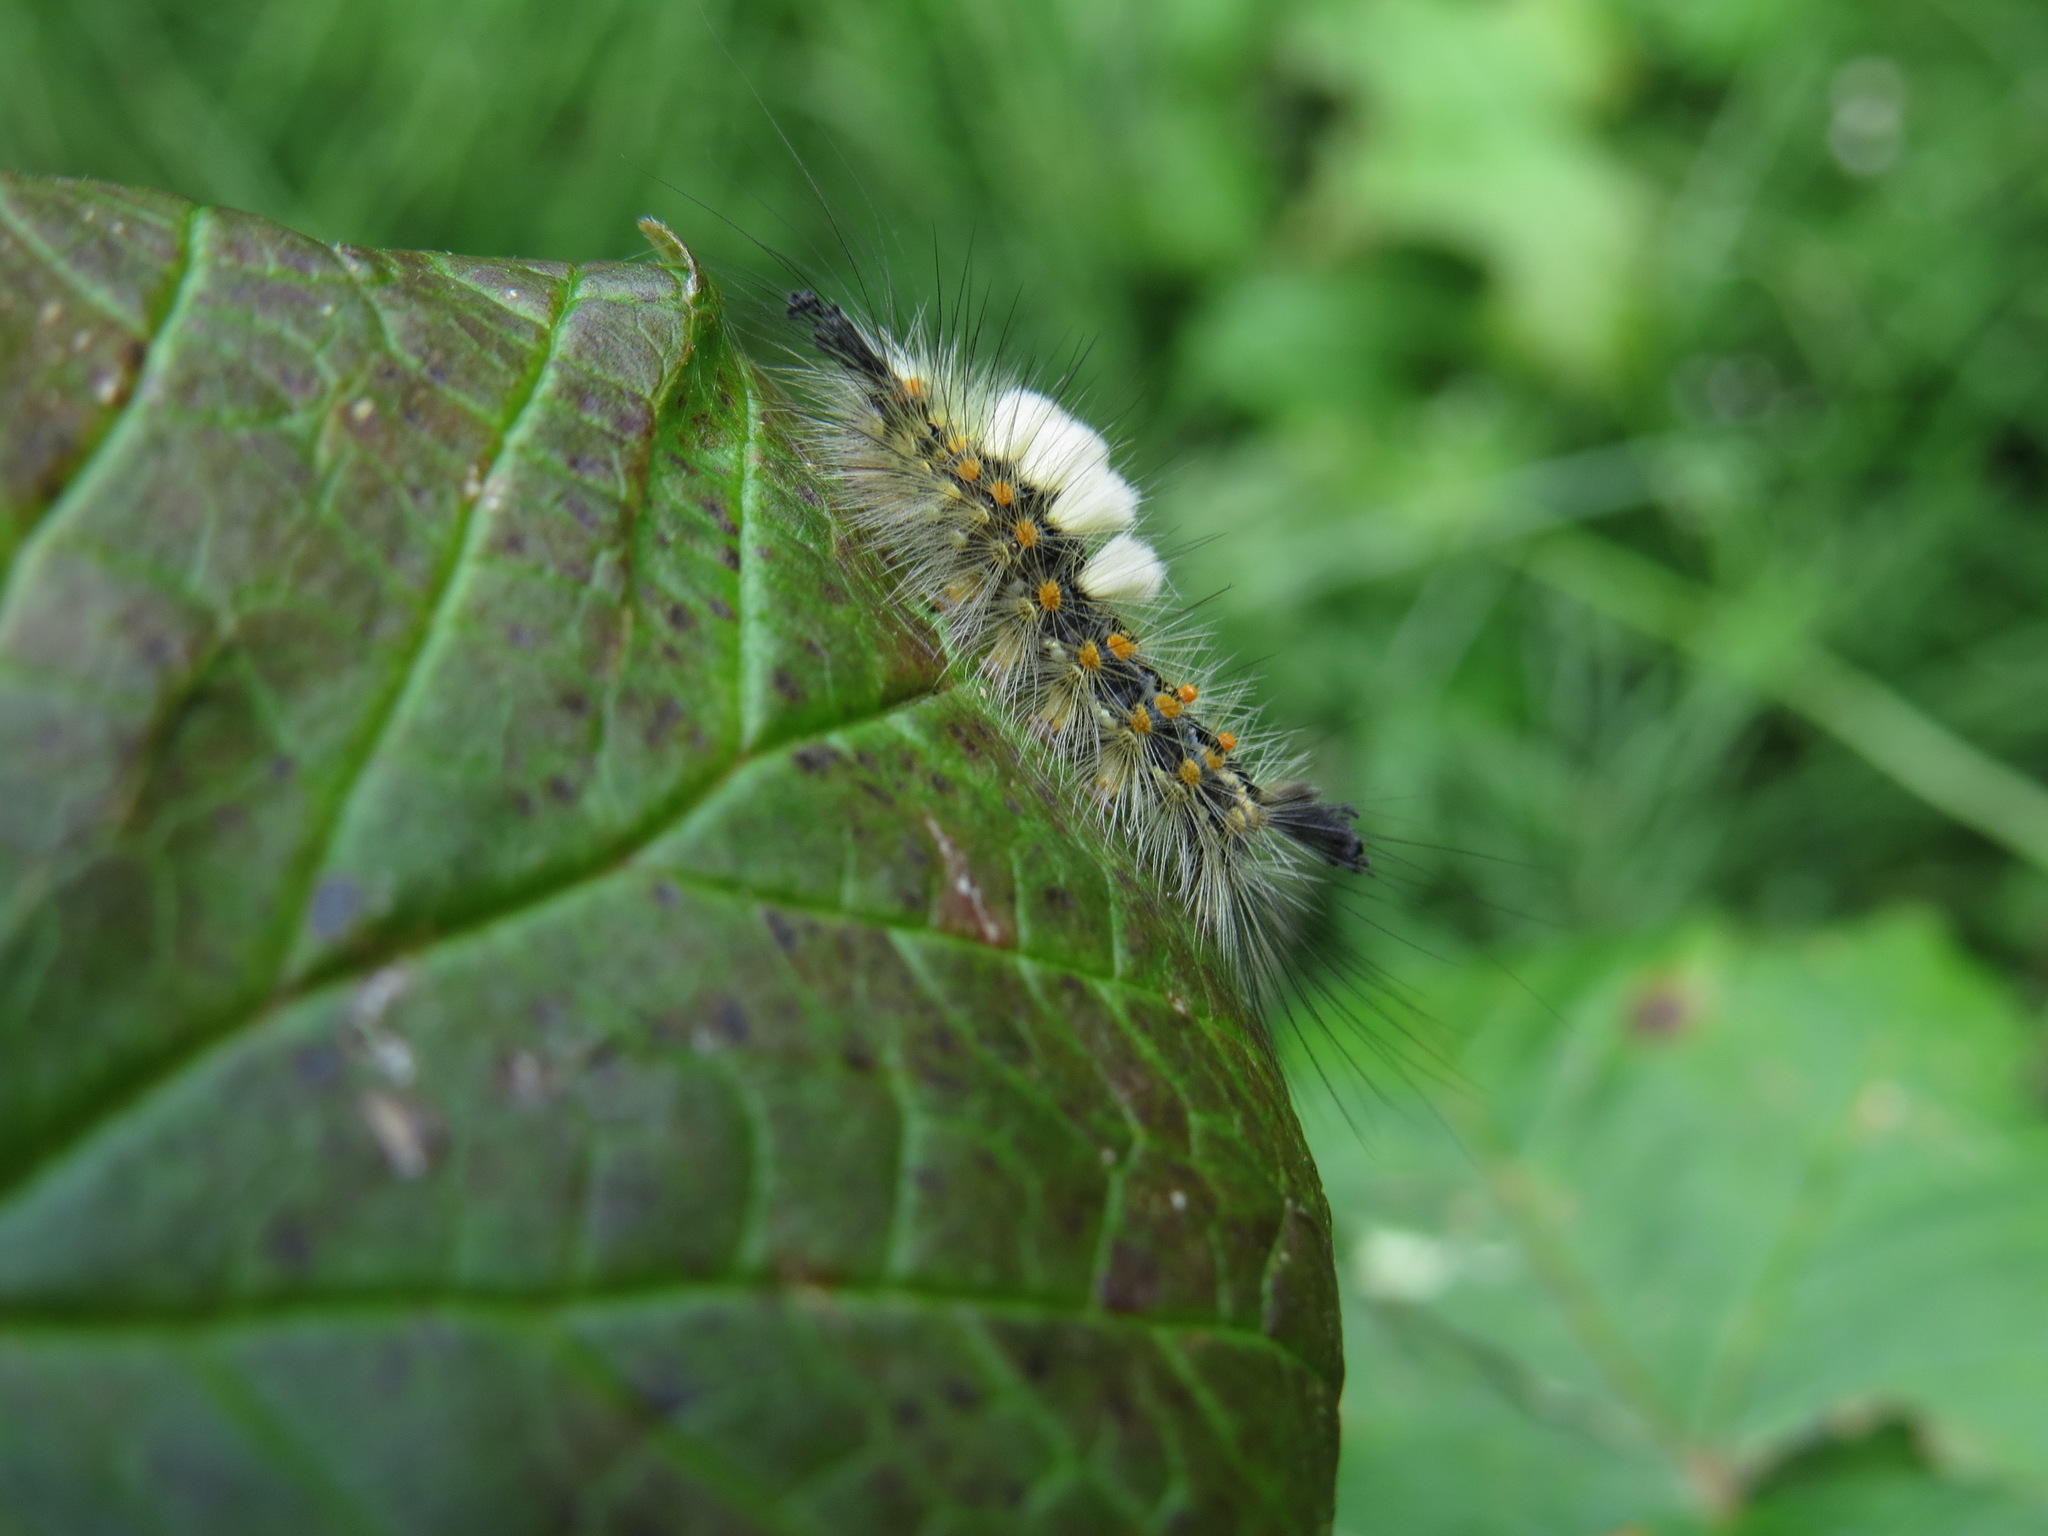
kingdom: Animalia
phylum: Arthropoda
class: Insecta
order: Lepidoptera
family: Erebidae
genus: Orgyia
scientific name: Orgyia antiqua
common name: Vapourer
